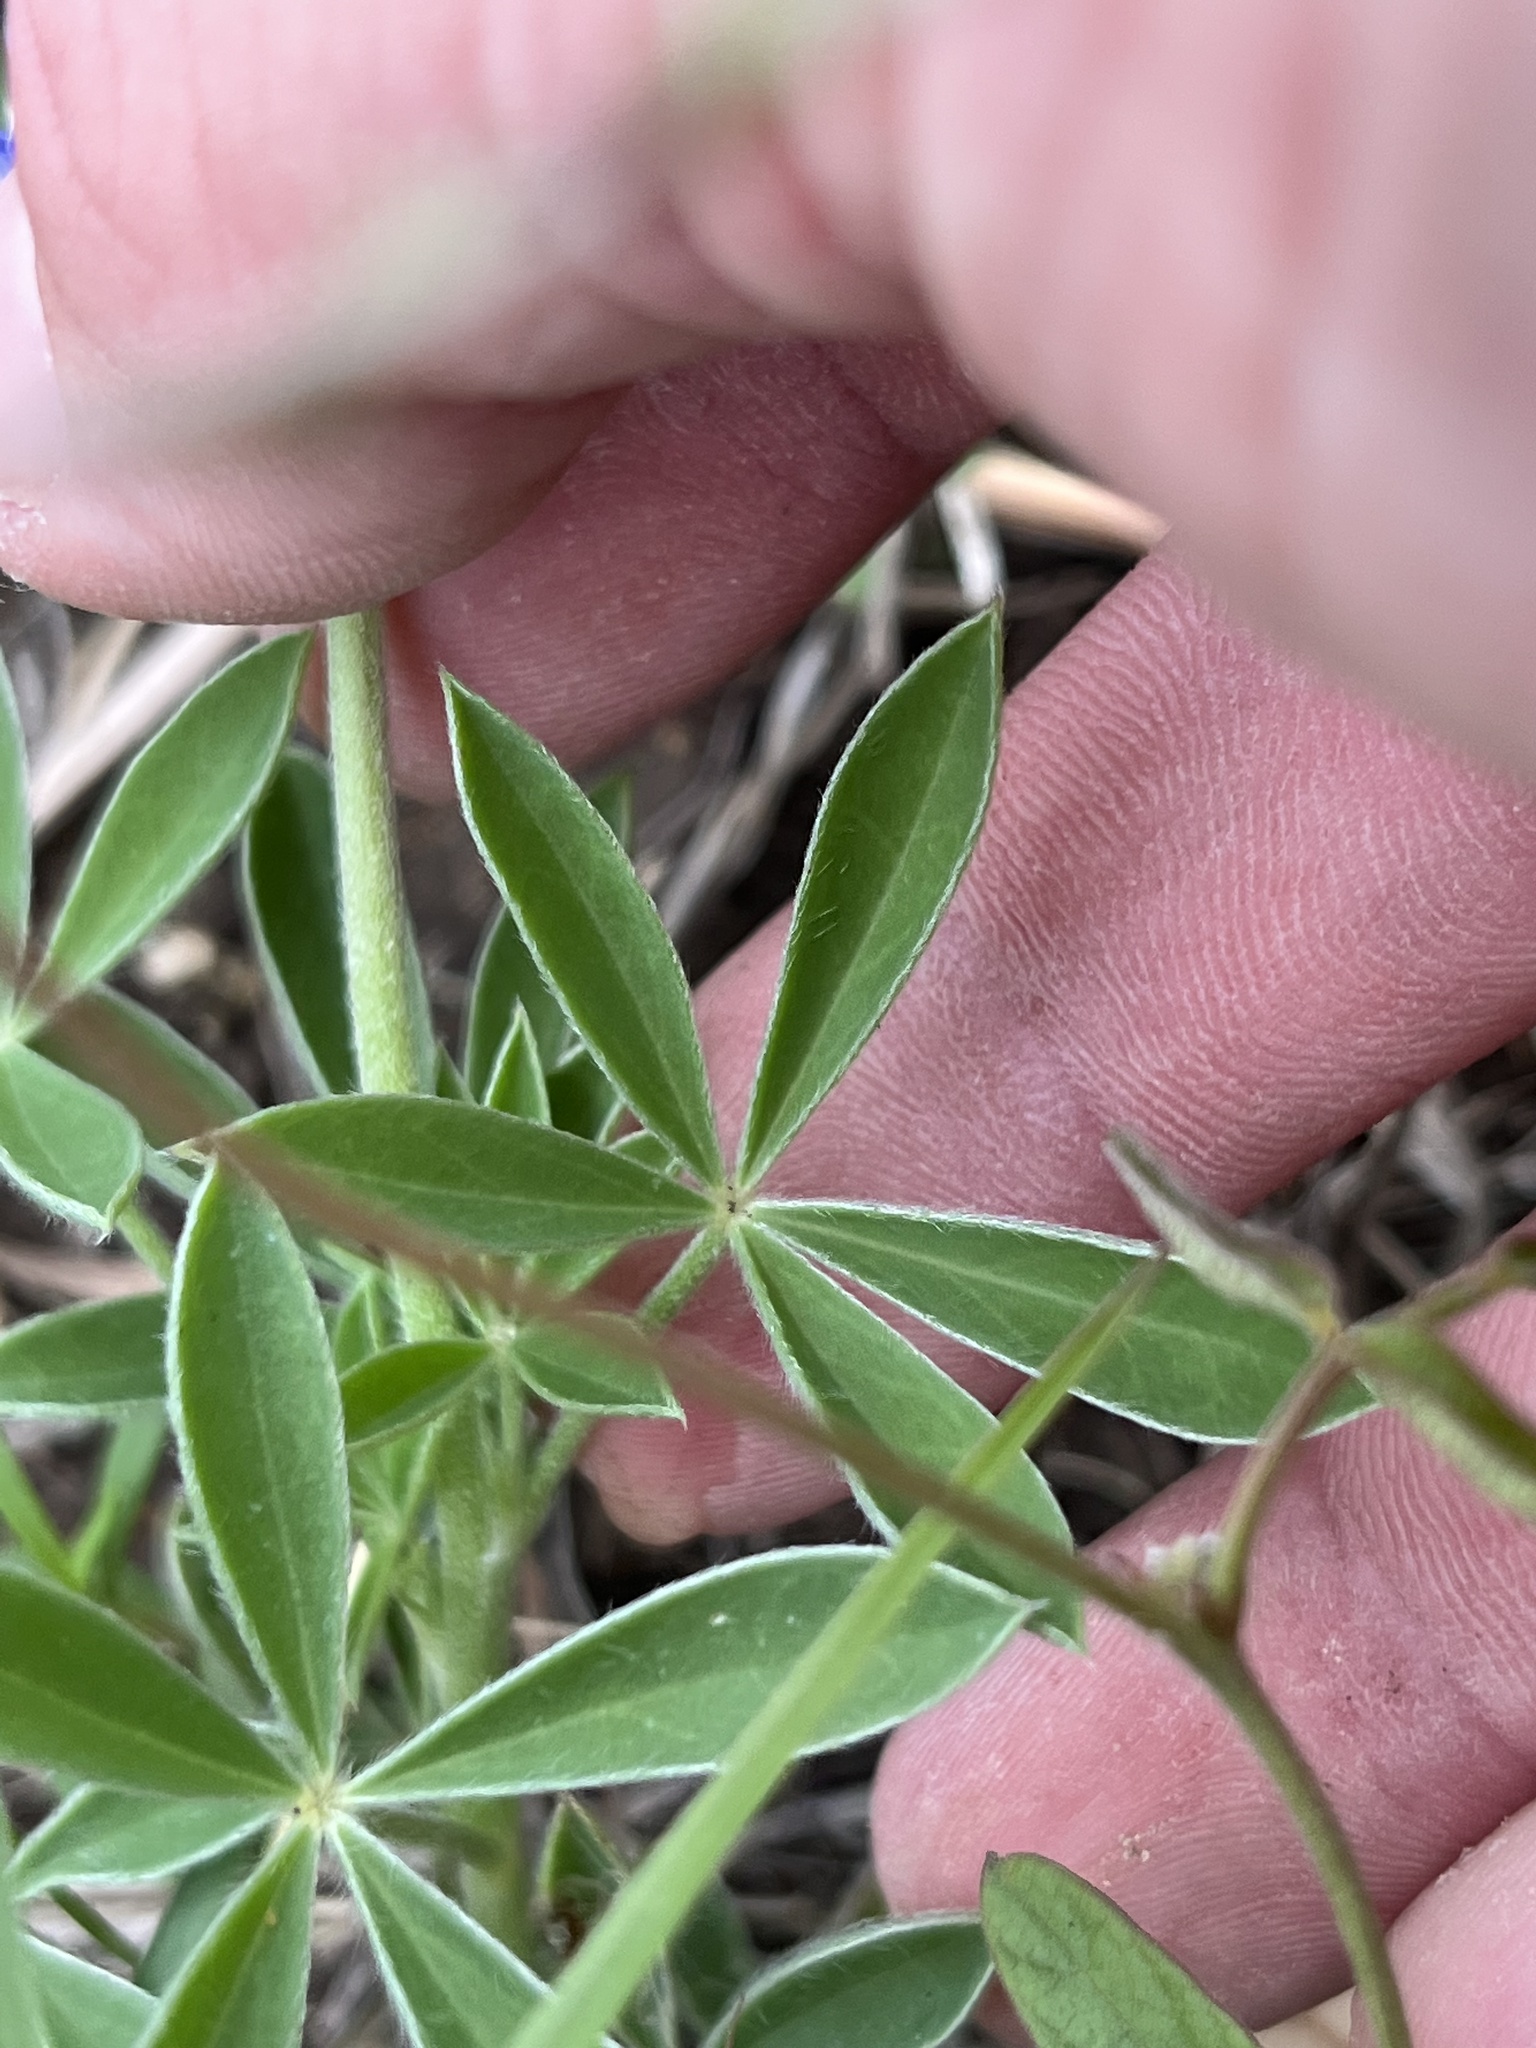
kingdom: Plantae
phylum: Tracheophyta
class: Magnoliopsida
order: Fabales
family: Fabaceae
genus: Lupinus
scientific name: Lupinus texensis
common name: Texas bluebonnet
